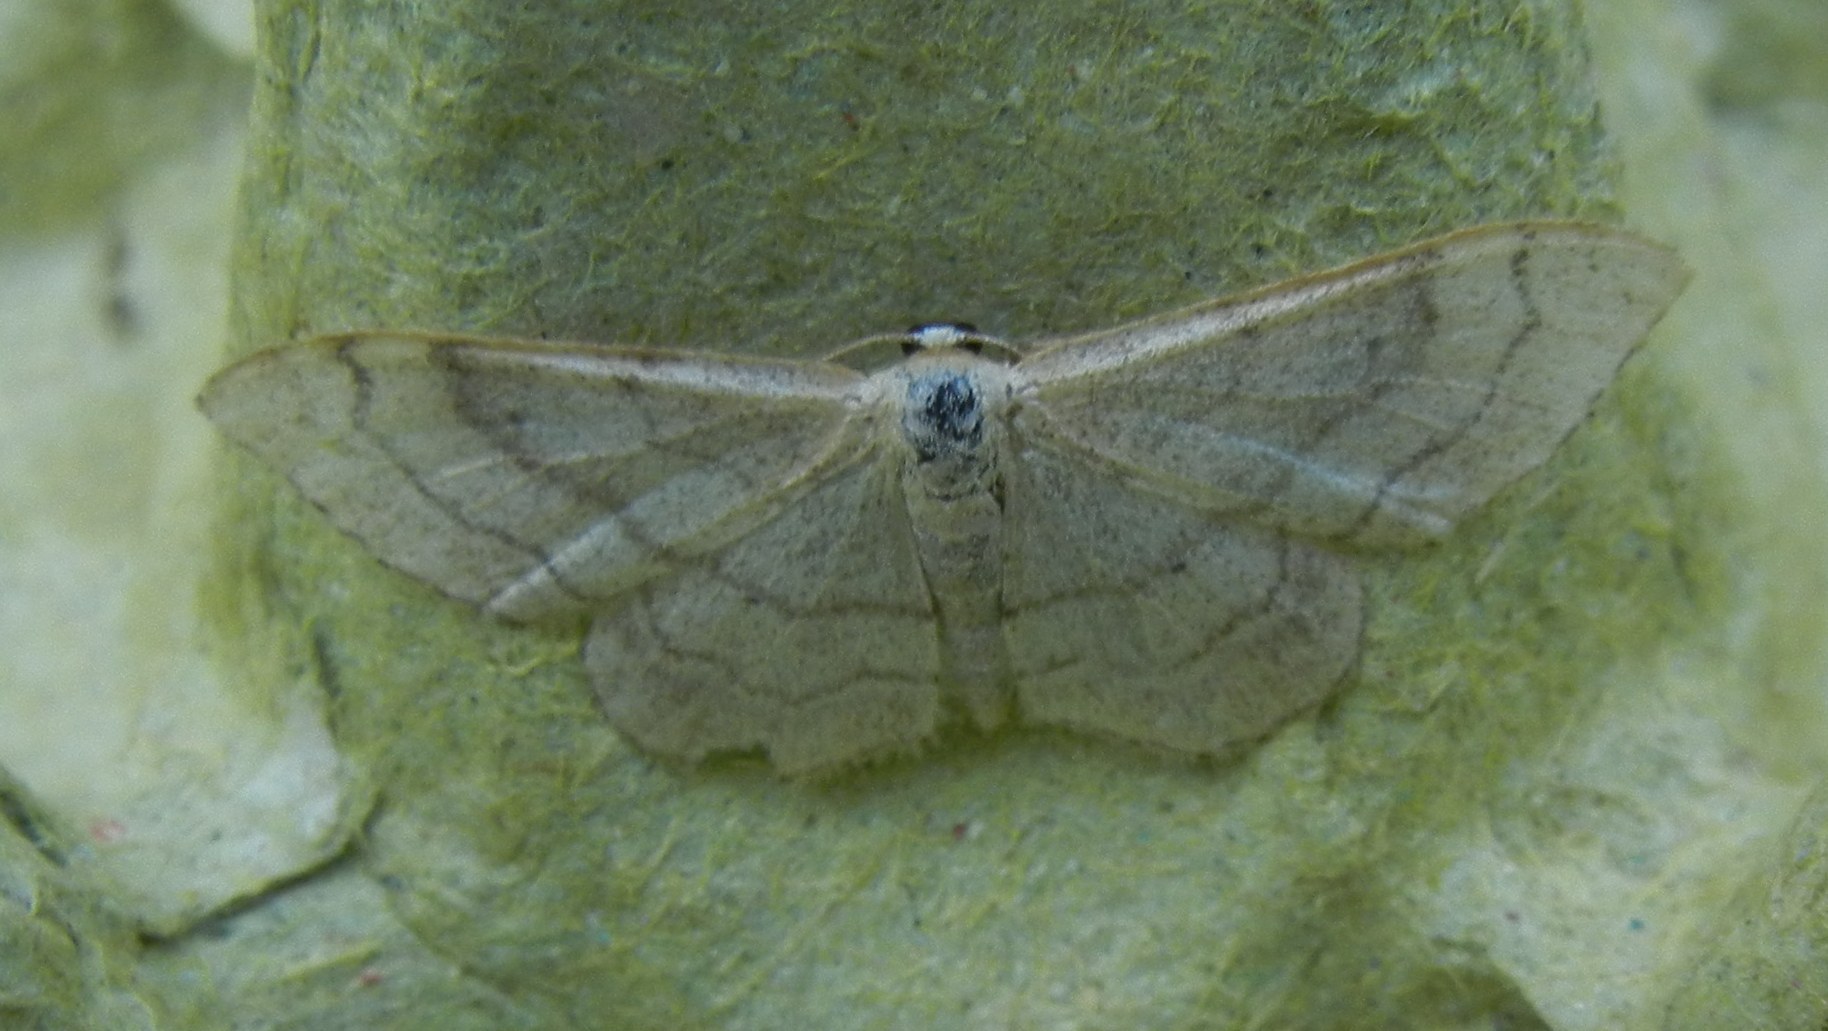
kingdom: Animalia
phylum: Arthropoda
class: Insecta
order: Lepidoptera
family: Geometridae
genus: Idaea
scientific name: Idaea aversata
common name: Riband wave
